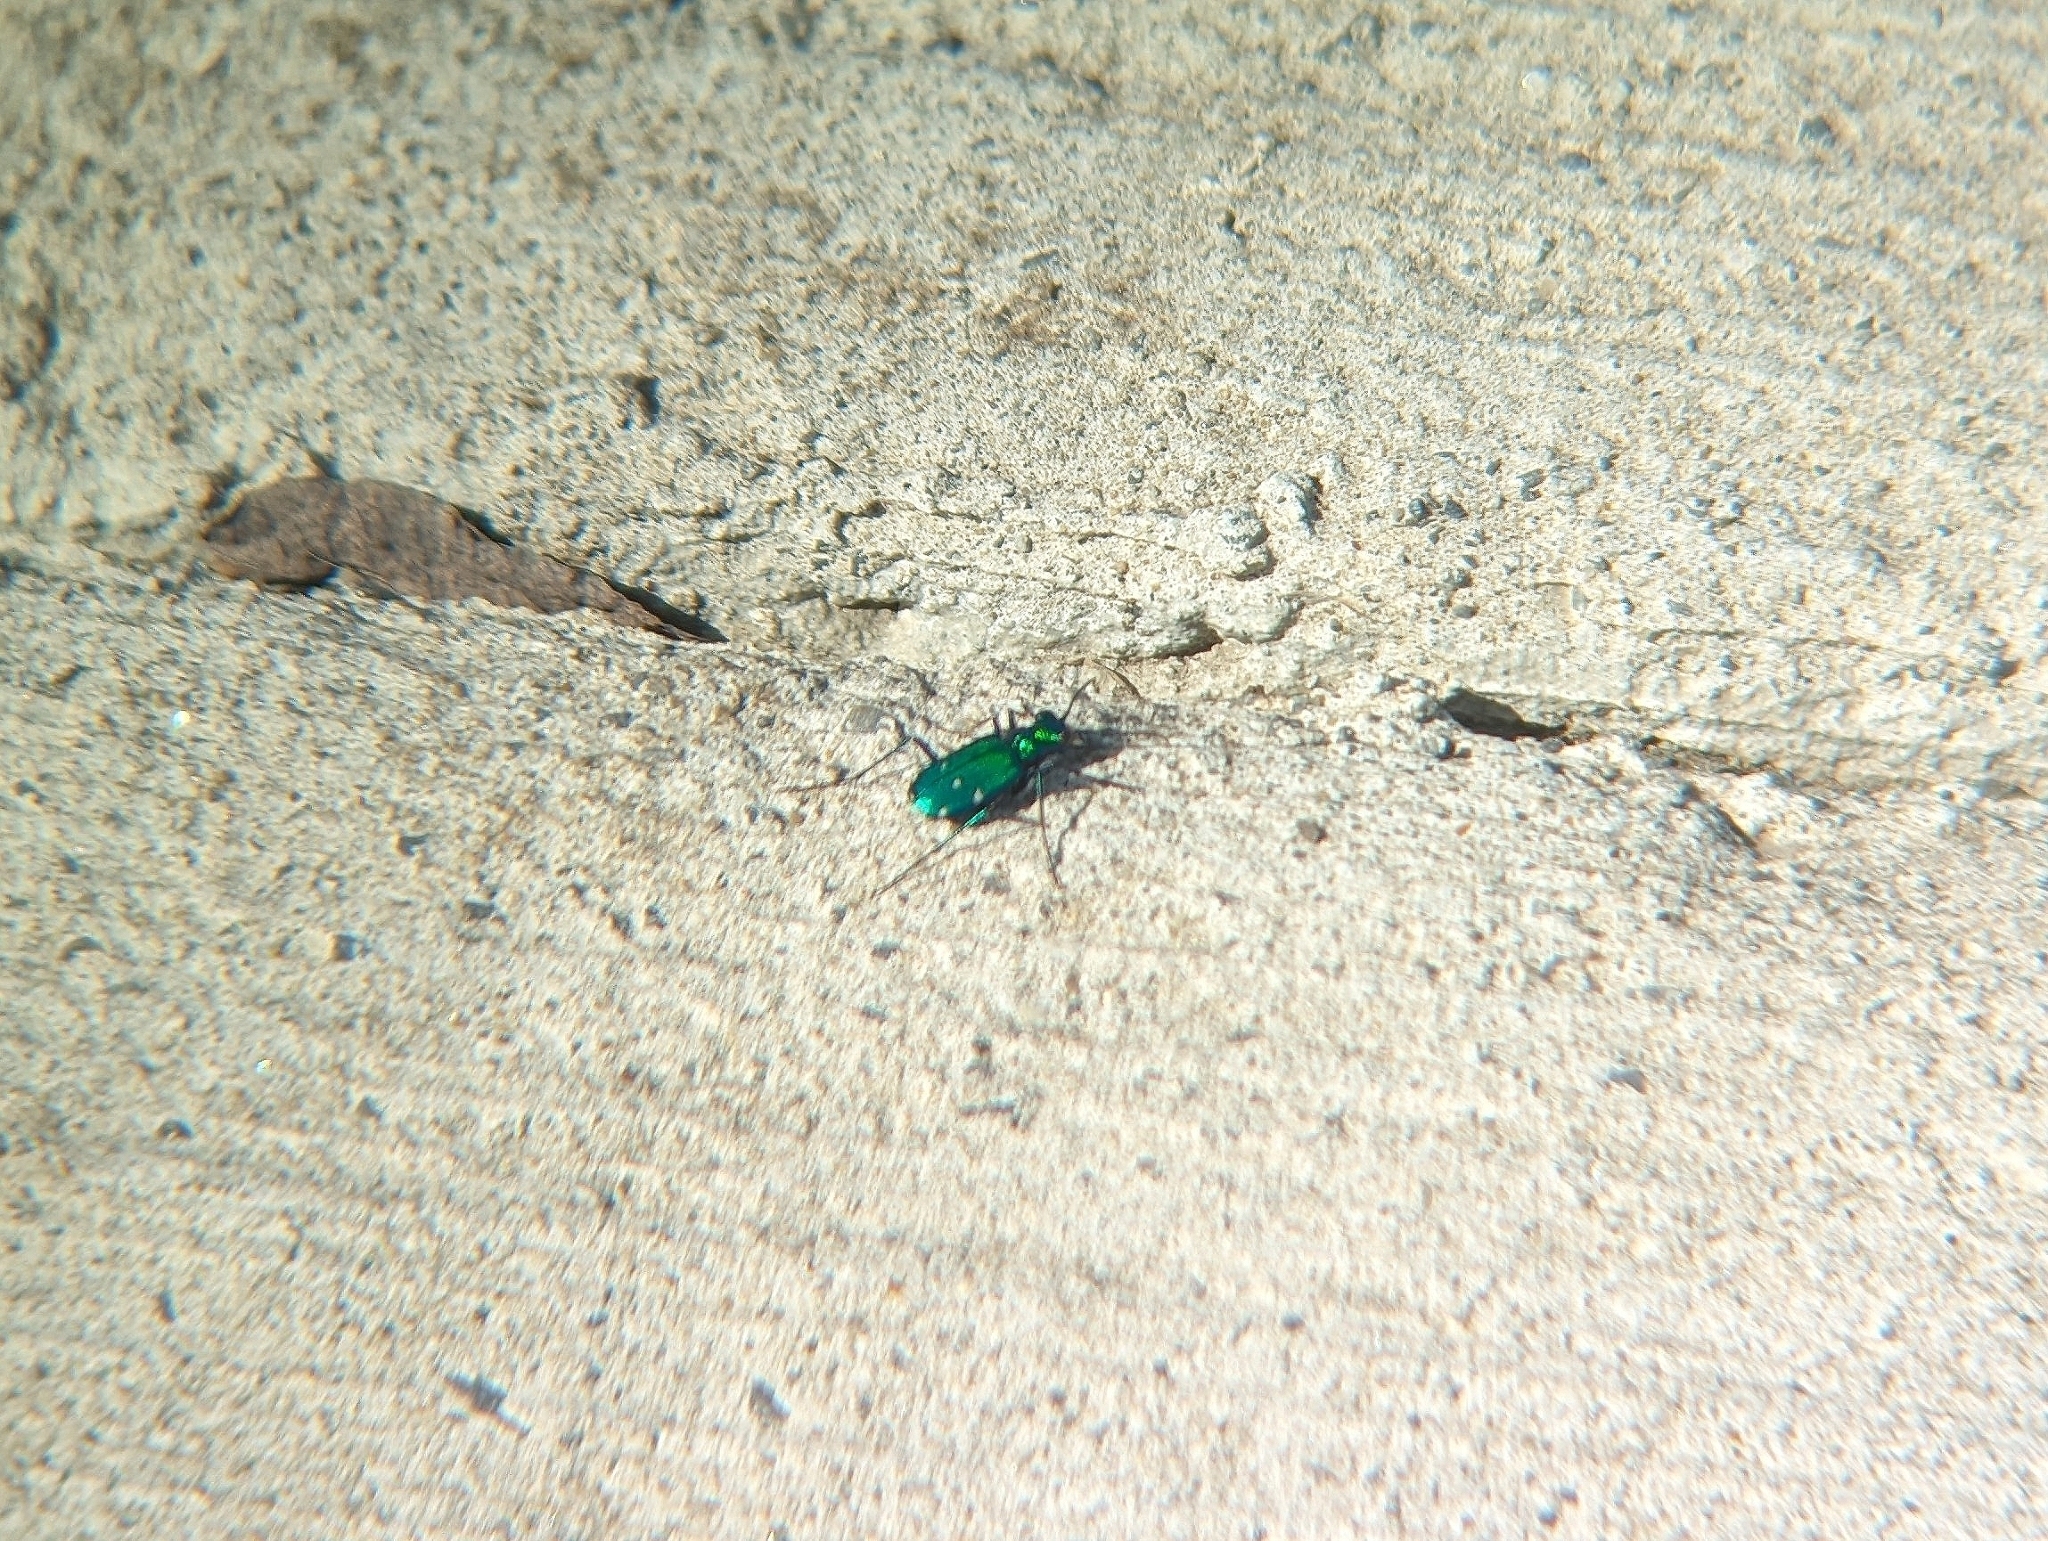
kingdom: Animalia
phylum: Arthropoda
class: Insecta
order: Coleoptera
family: Carabidae
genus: Cicindela
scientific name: Cicindela sexguttata
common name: Six-spotted tiger beetle
